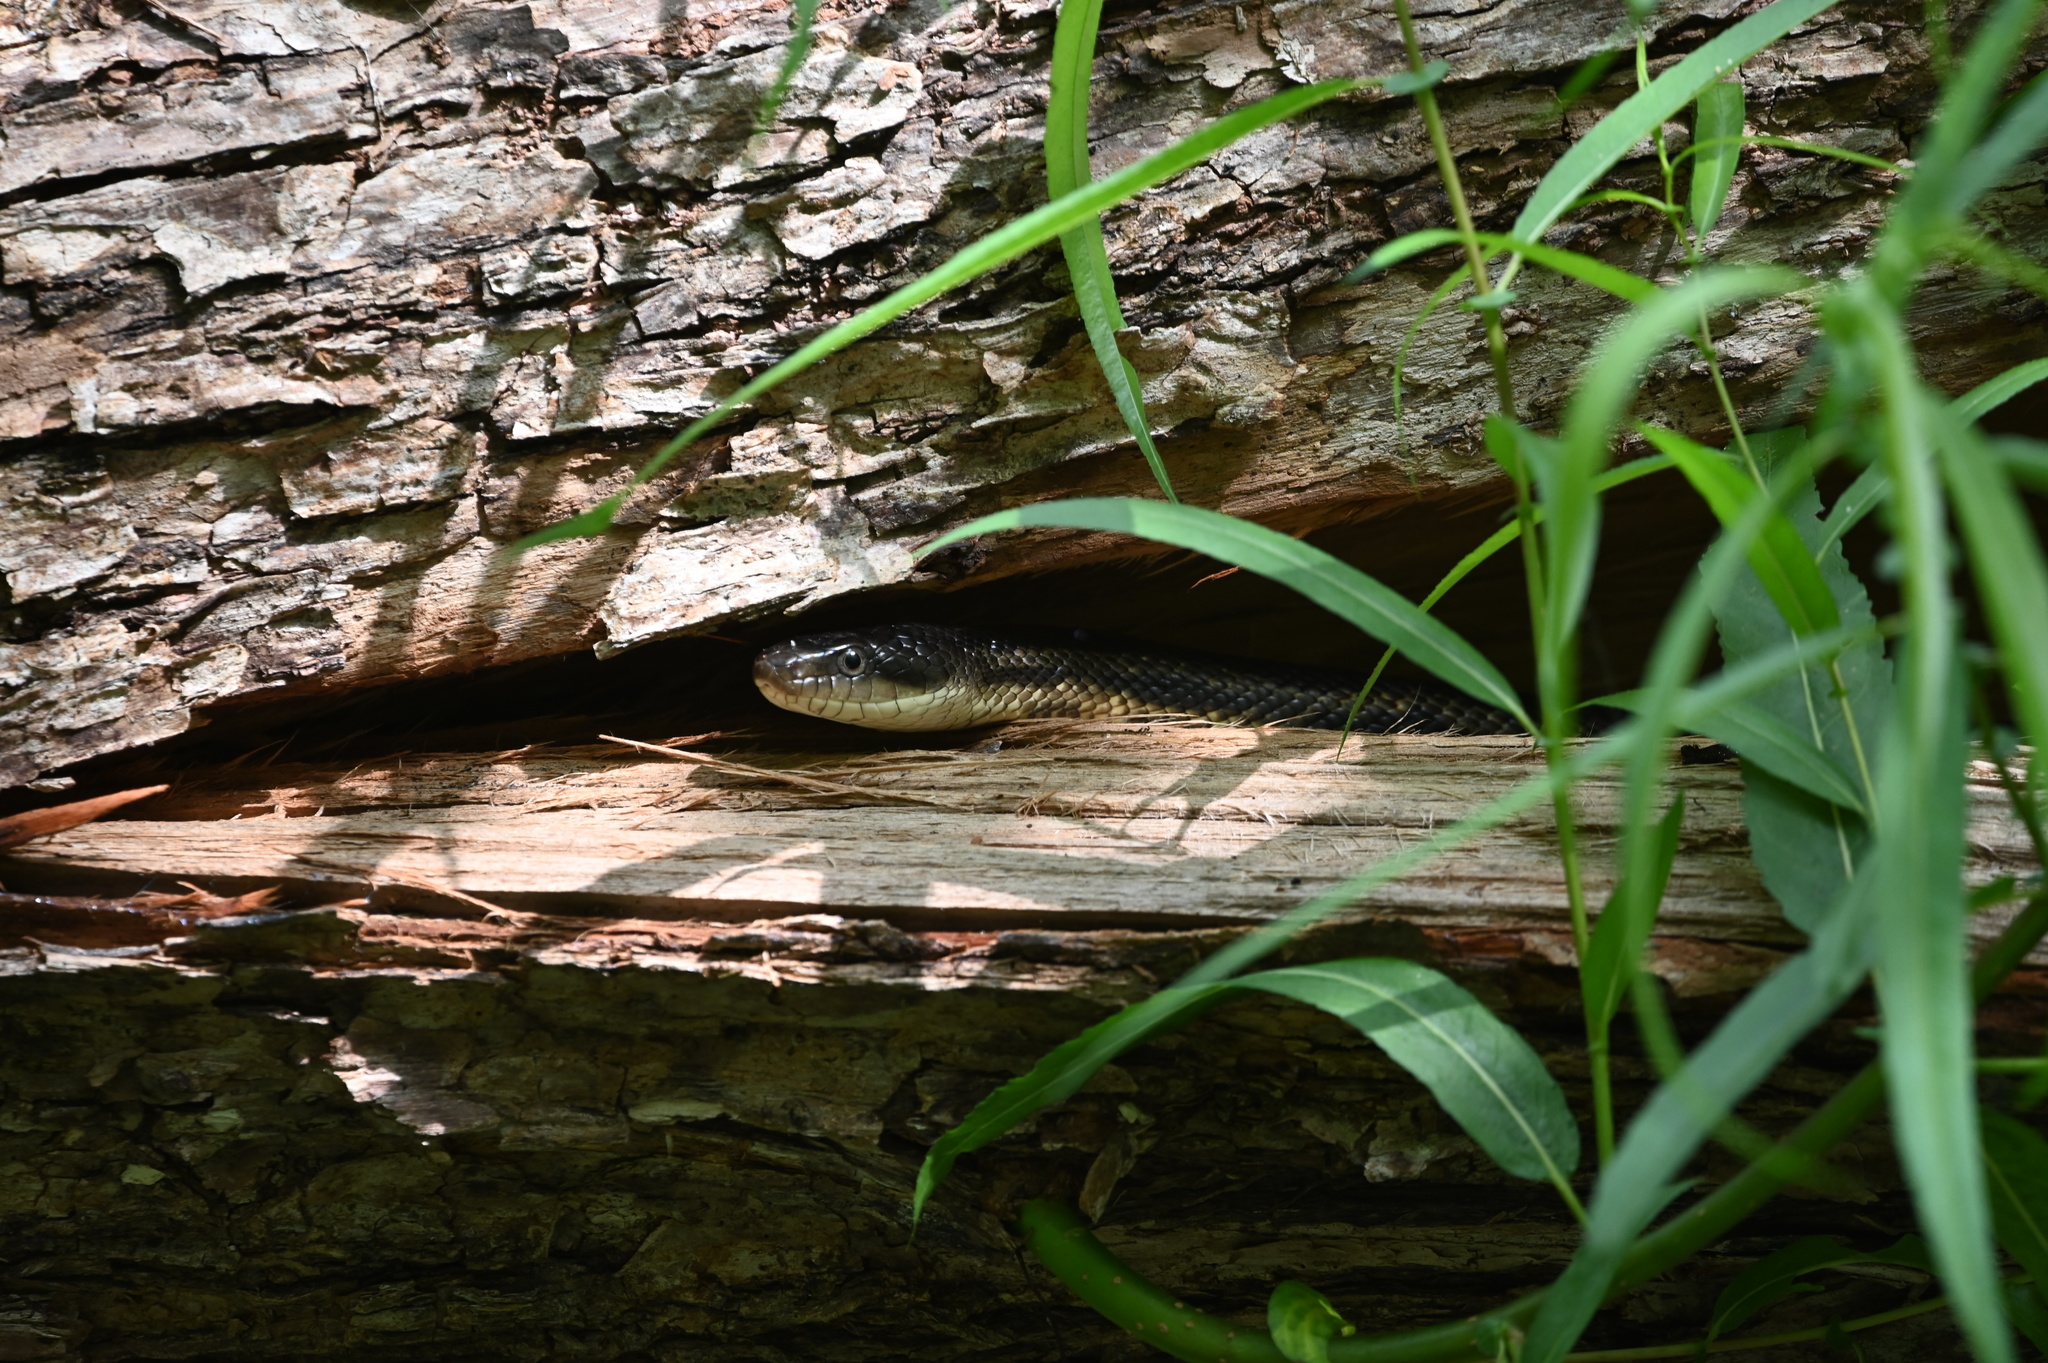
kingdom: Animalia
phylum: Chordata
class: Squamata
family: Colubridae
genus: Pantherophis
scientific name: Pantherophis obsoletus
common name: Black rat snake
